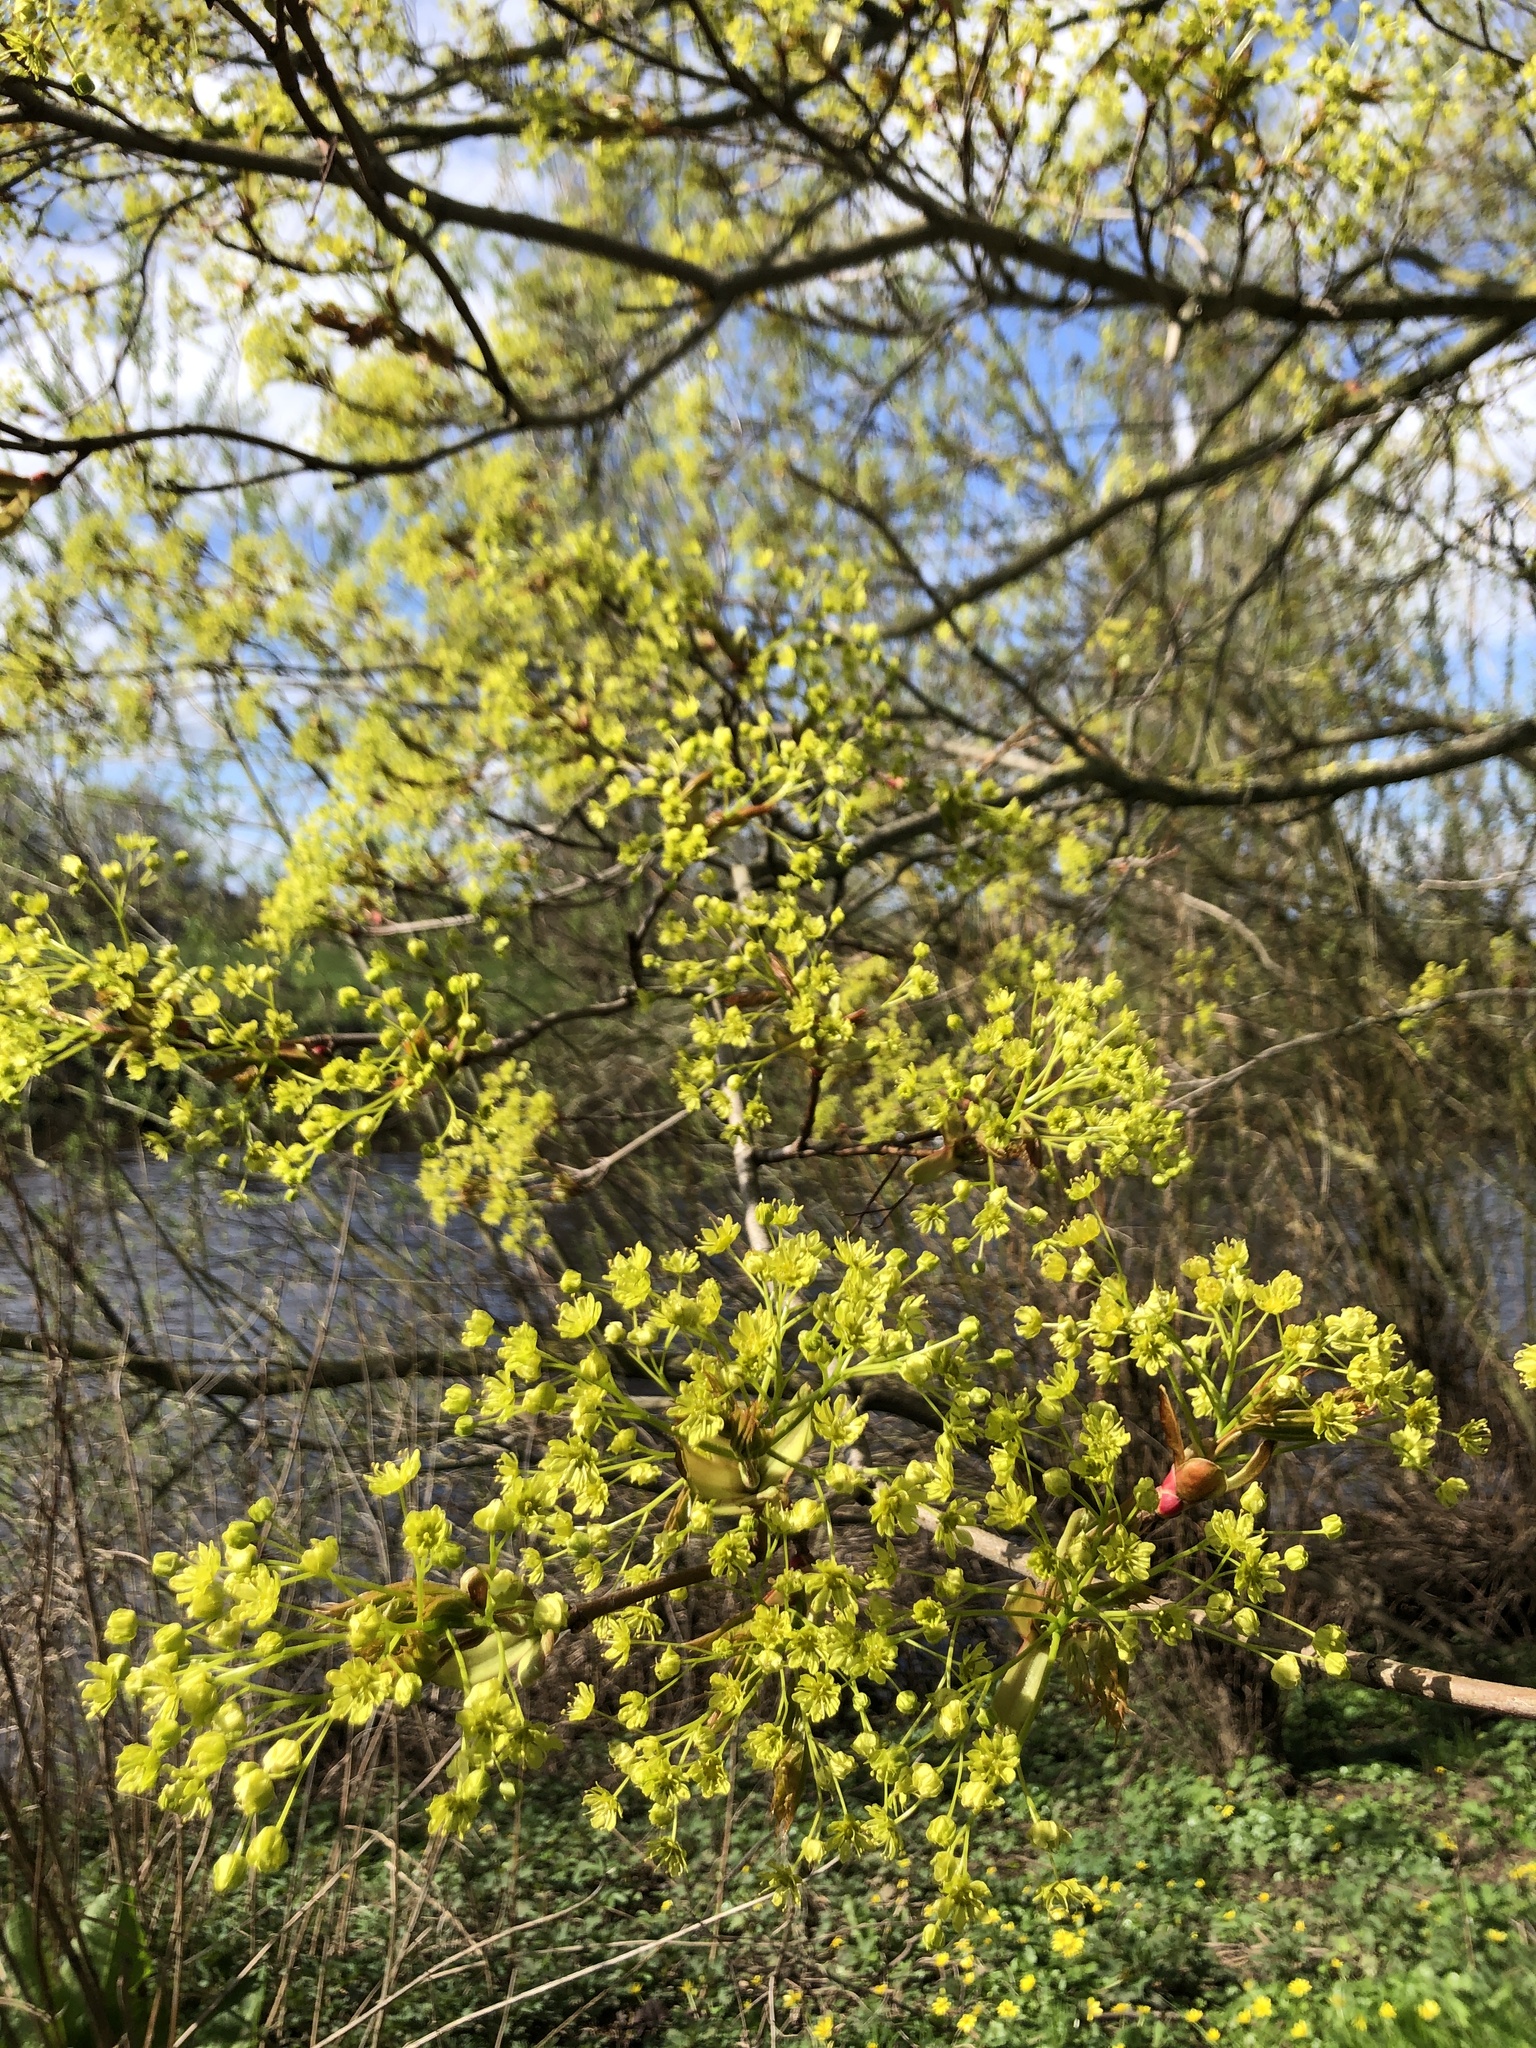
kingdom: Plantae
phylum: Tracheophyta
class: Magnoliopsida
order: Sapindales
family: Sapindaceae
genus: Acer
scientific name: Acer platanoides
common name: Norway maple
